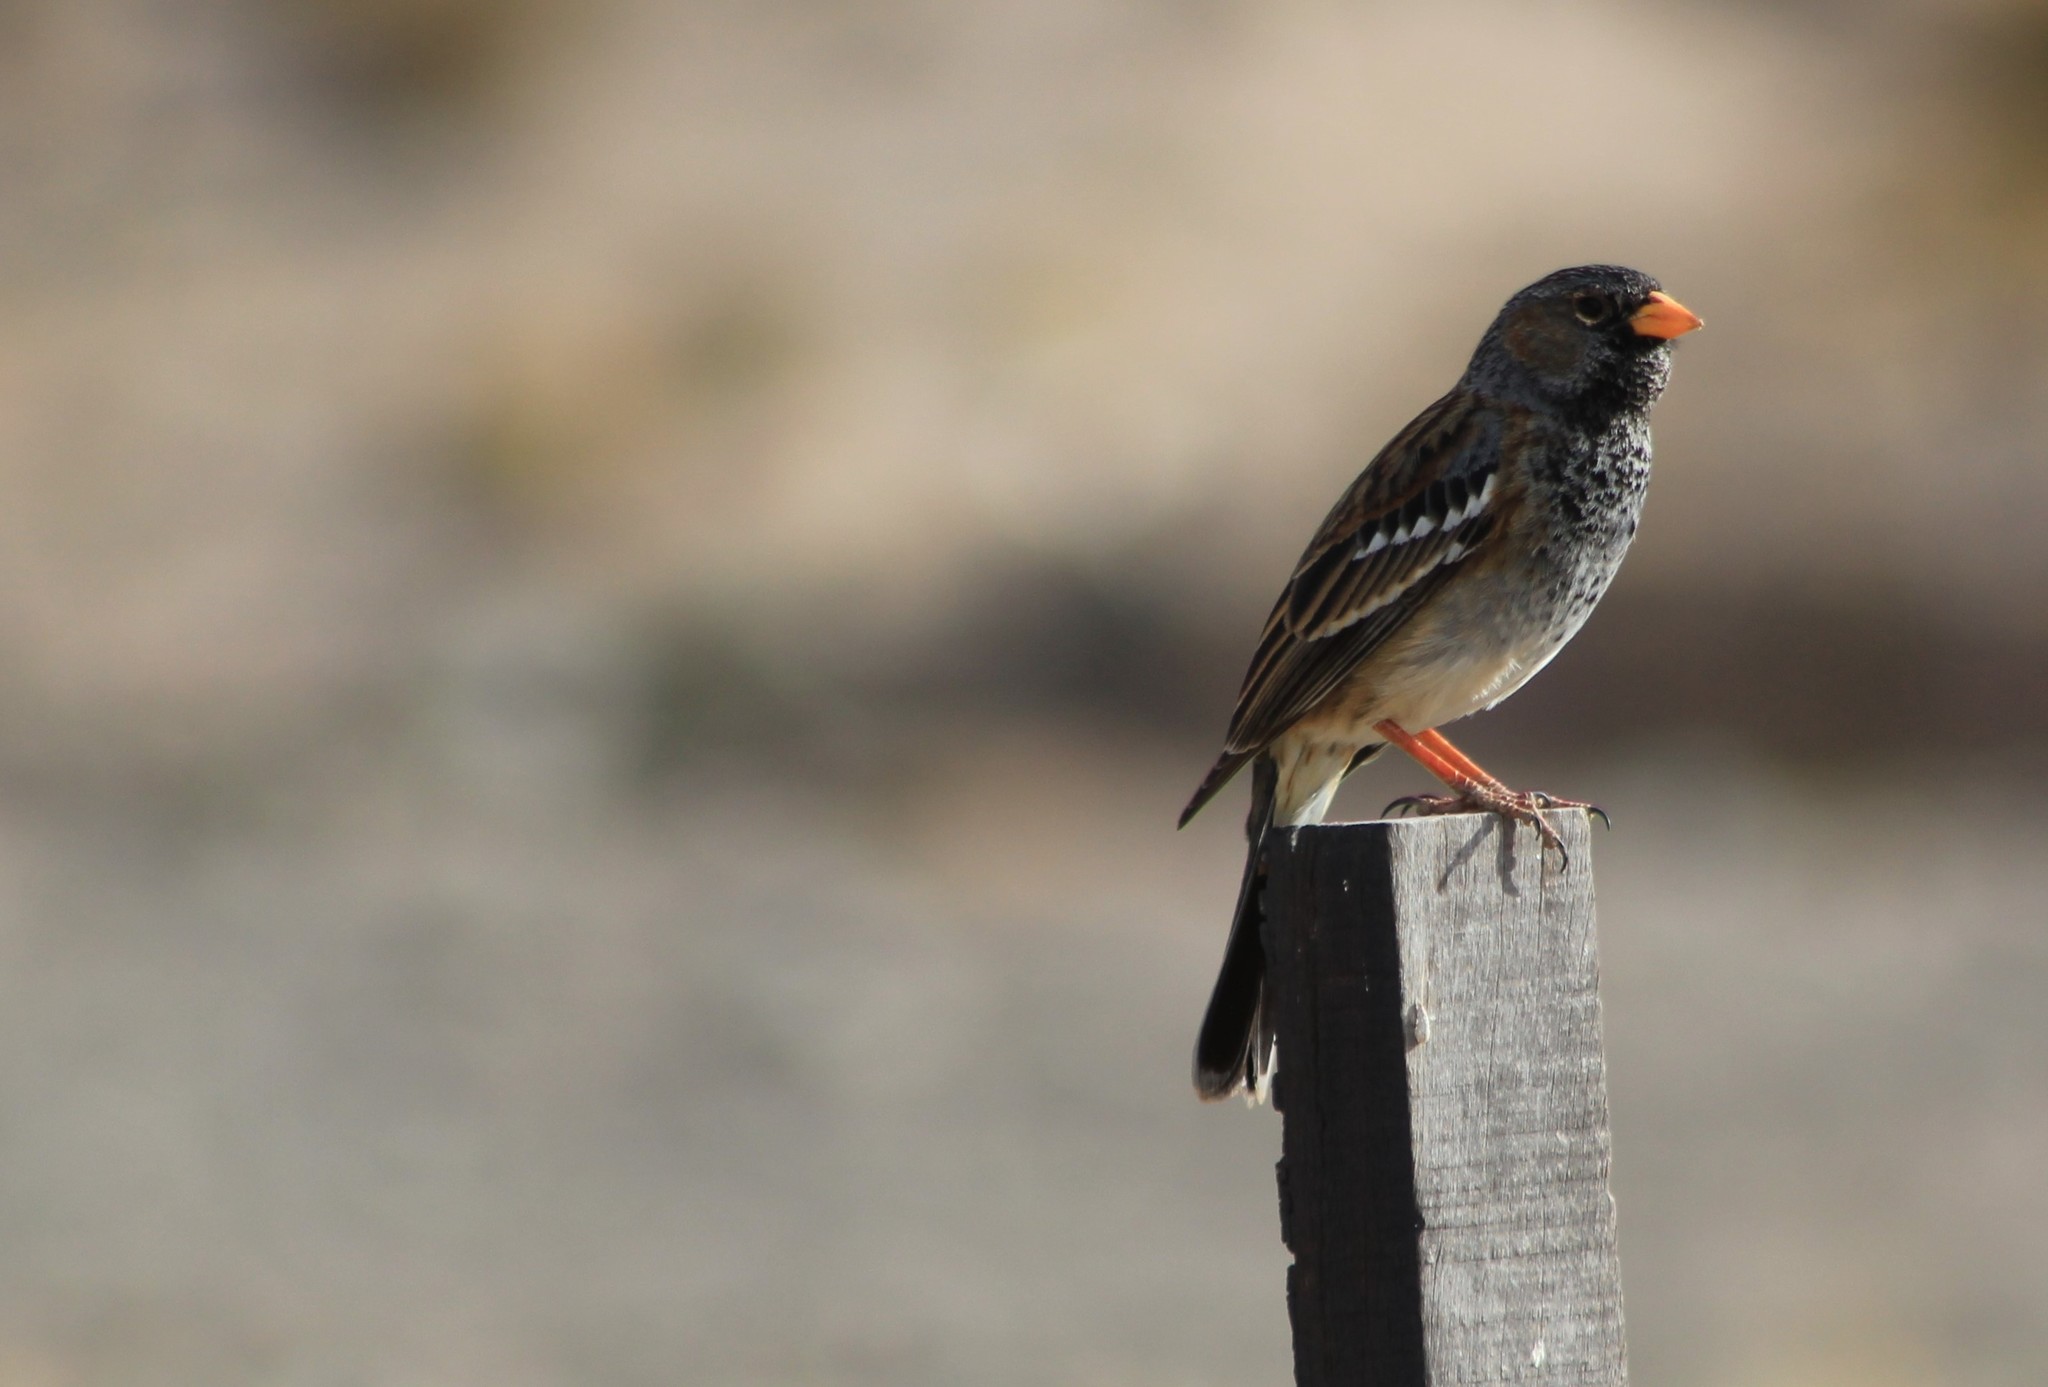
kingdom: Animalia
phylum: Chordata
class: Aves
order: Passeriformes
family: Thraupidae
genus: Rhopospina
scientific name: Rhopospina fruticeti
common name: Mourning sierra finch
